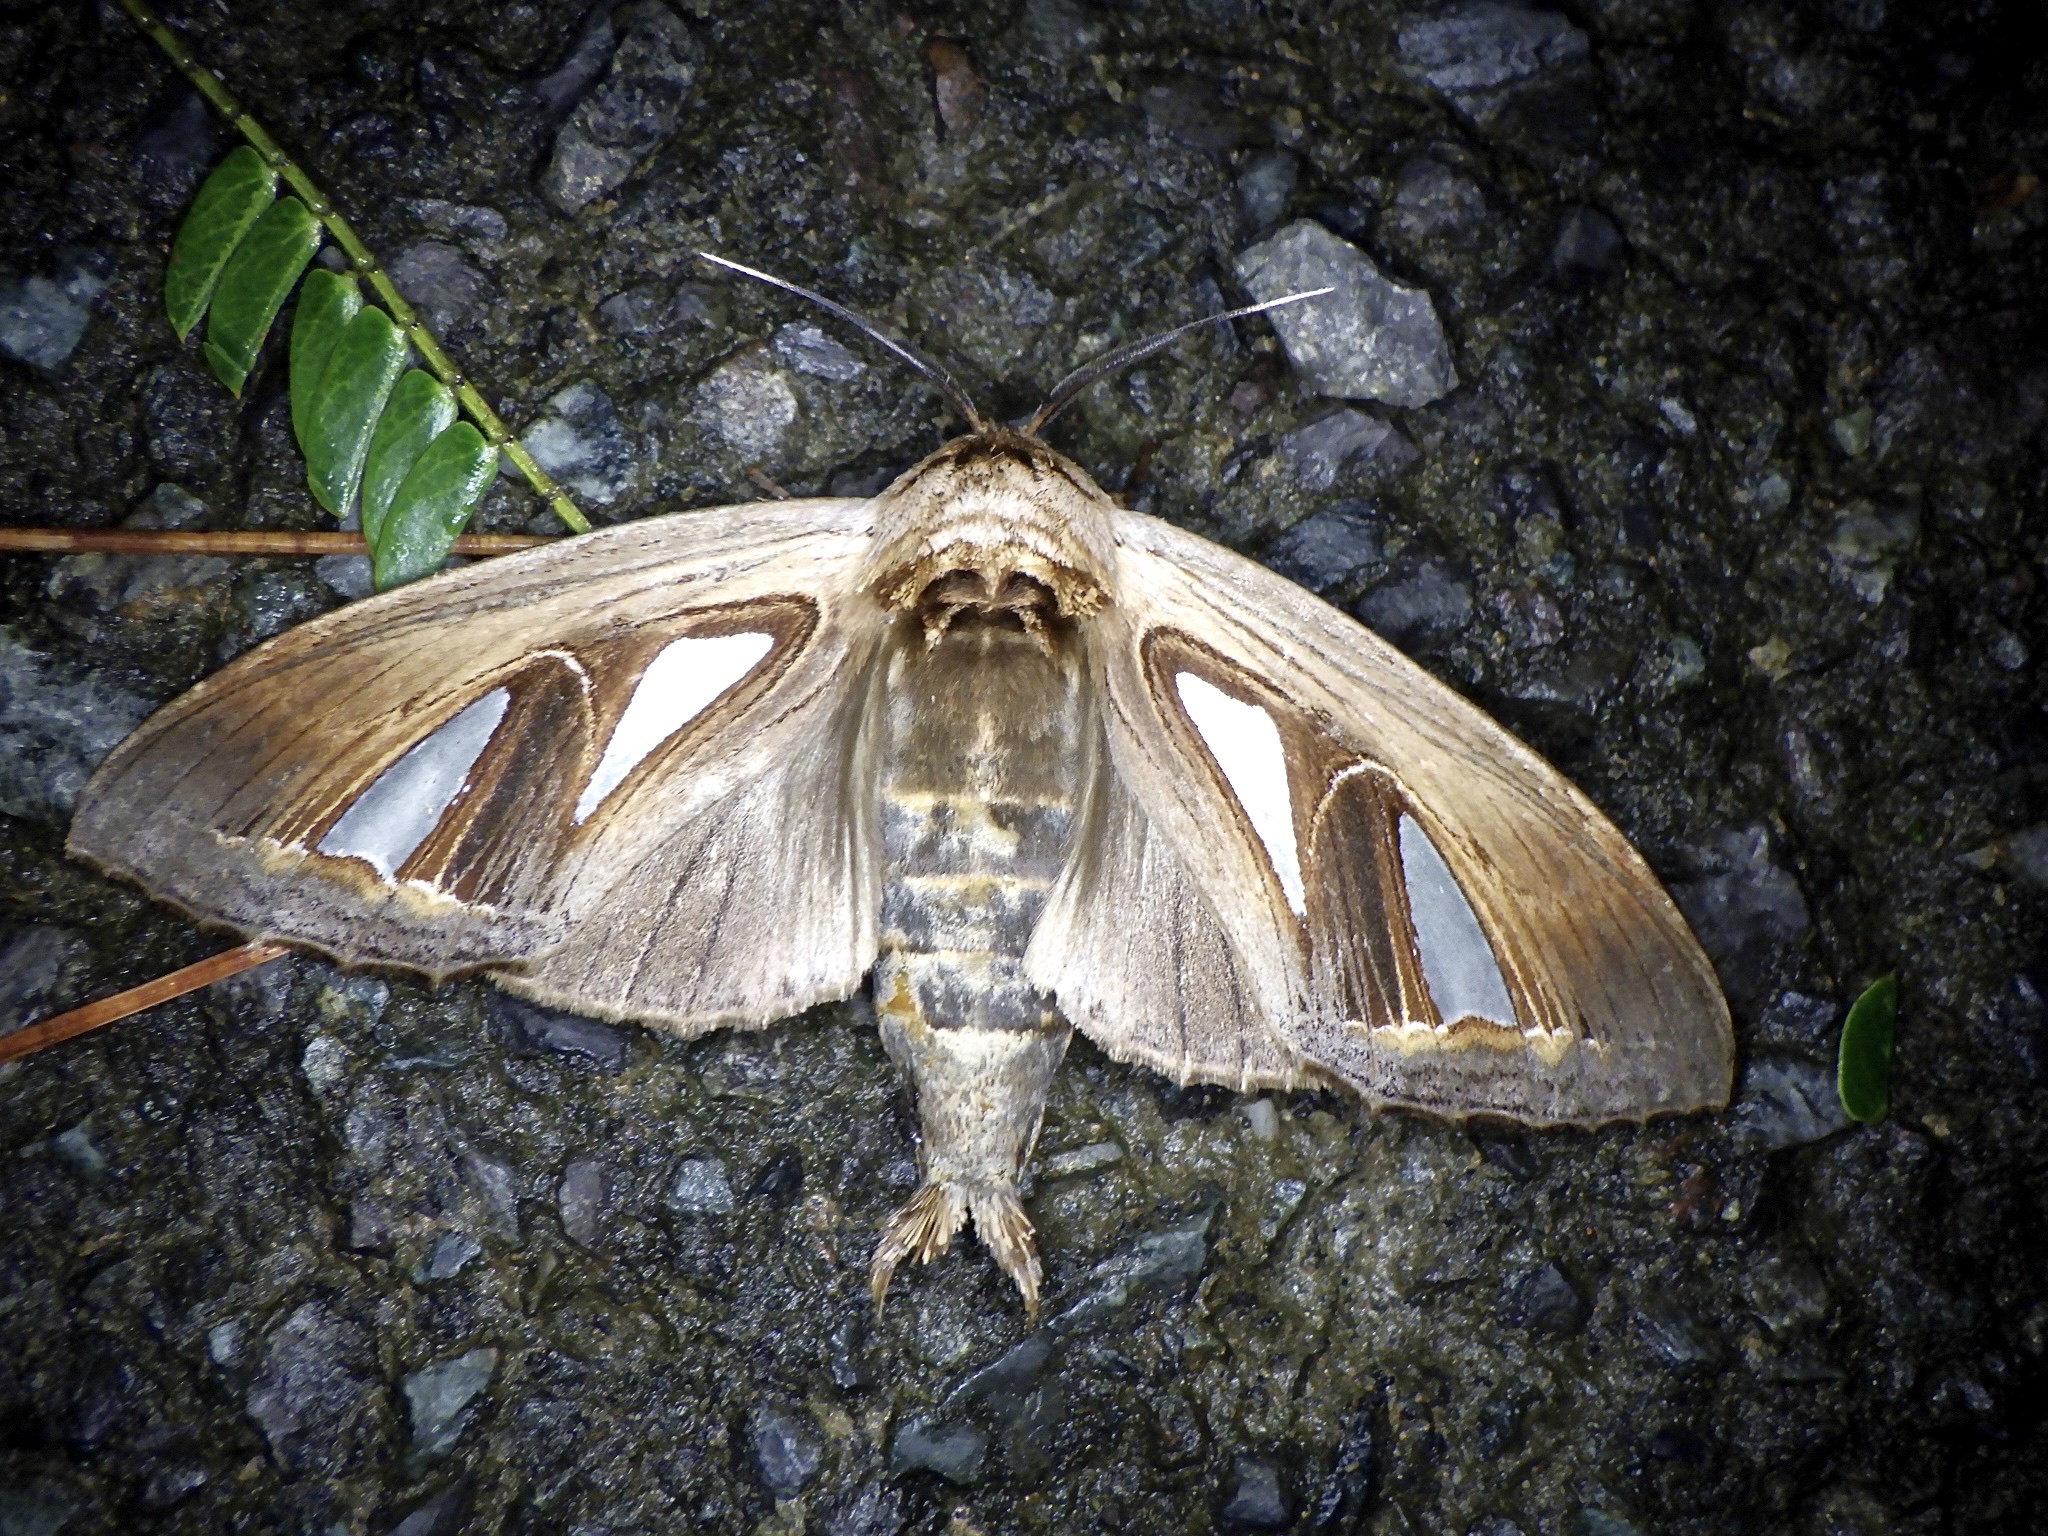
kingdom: Animalia
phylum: Arthropoda
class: Insecta
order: Lepidoptera
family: Notodontidae
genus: Tarsolepis
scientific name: Tarsolepis japonica
